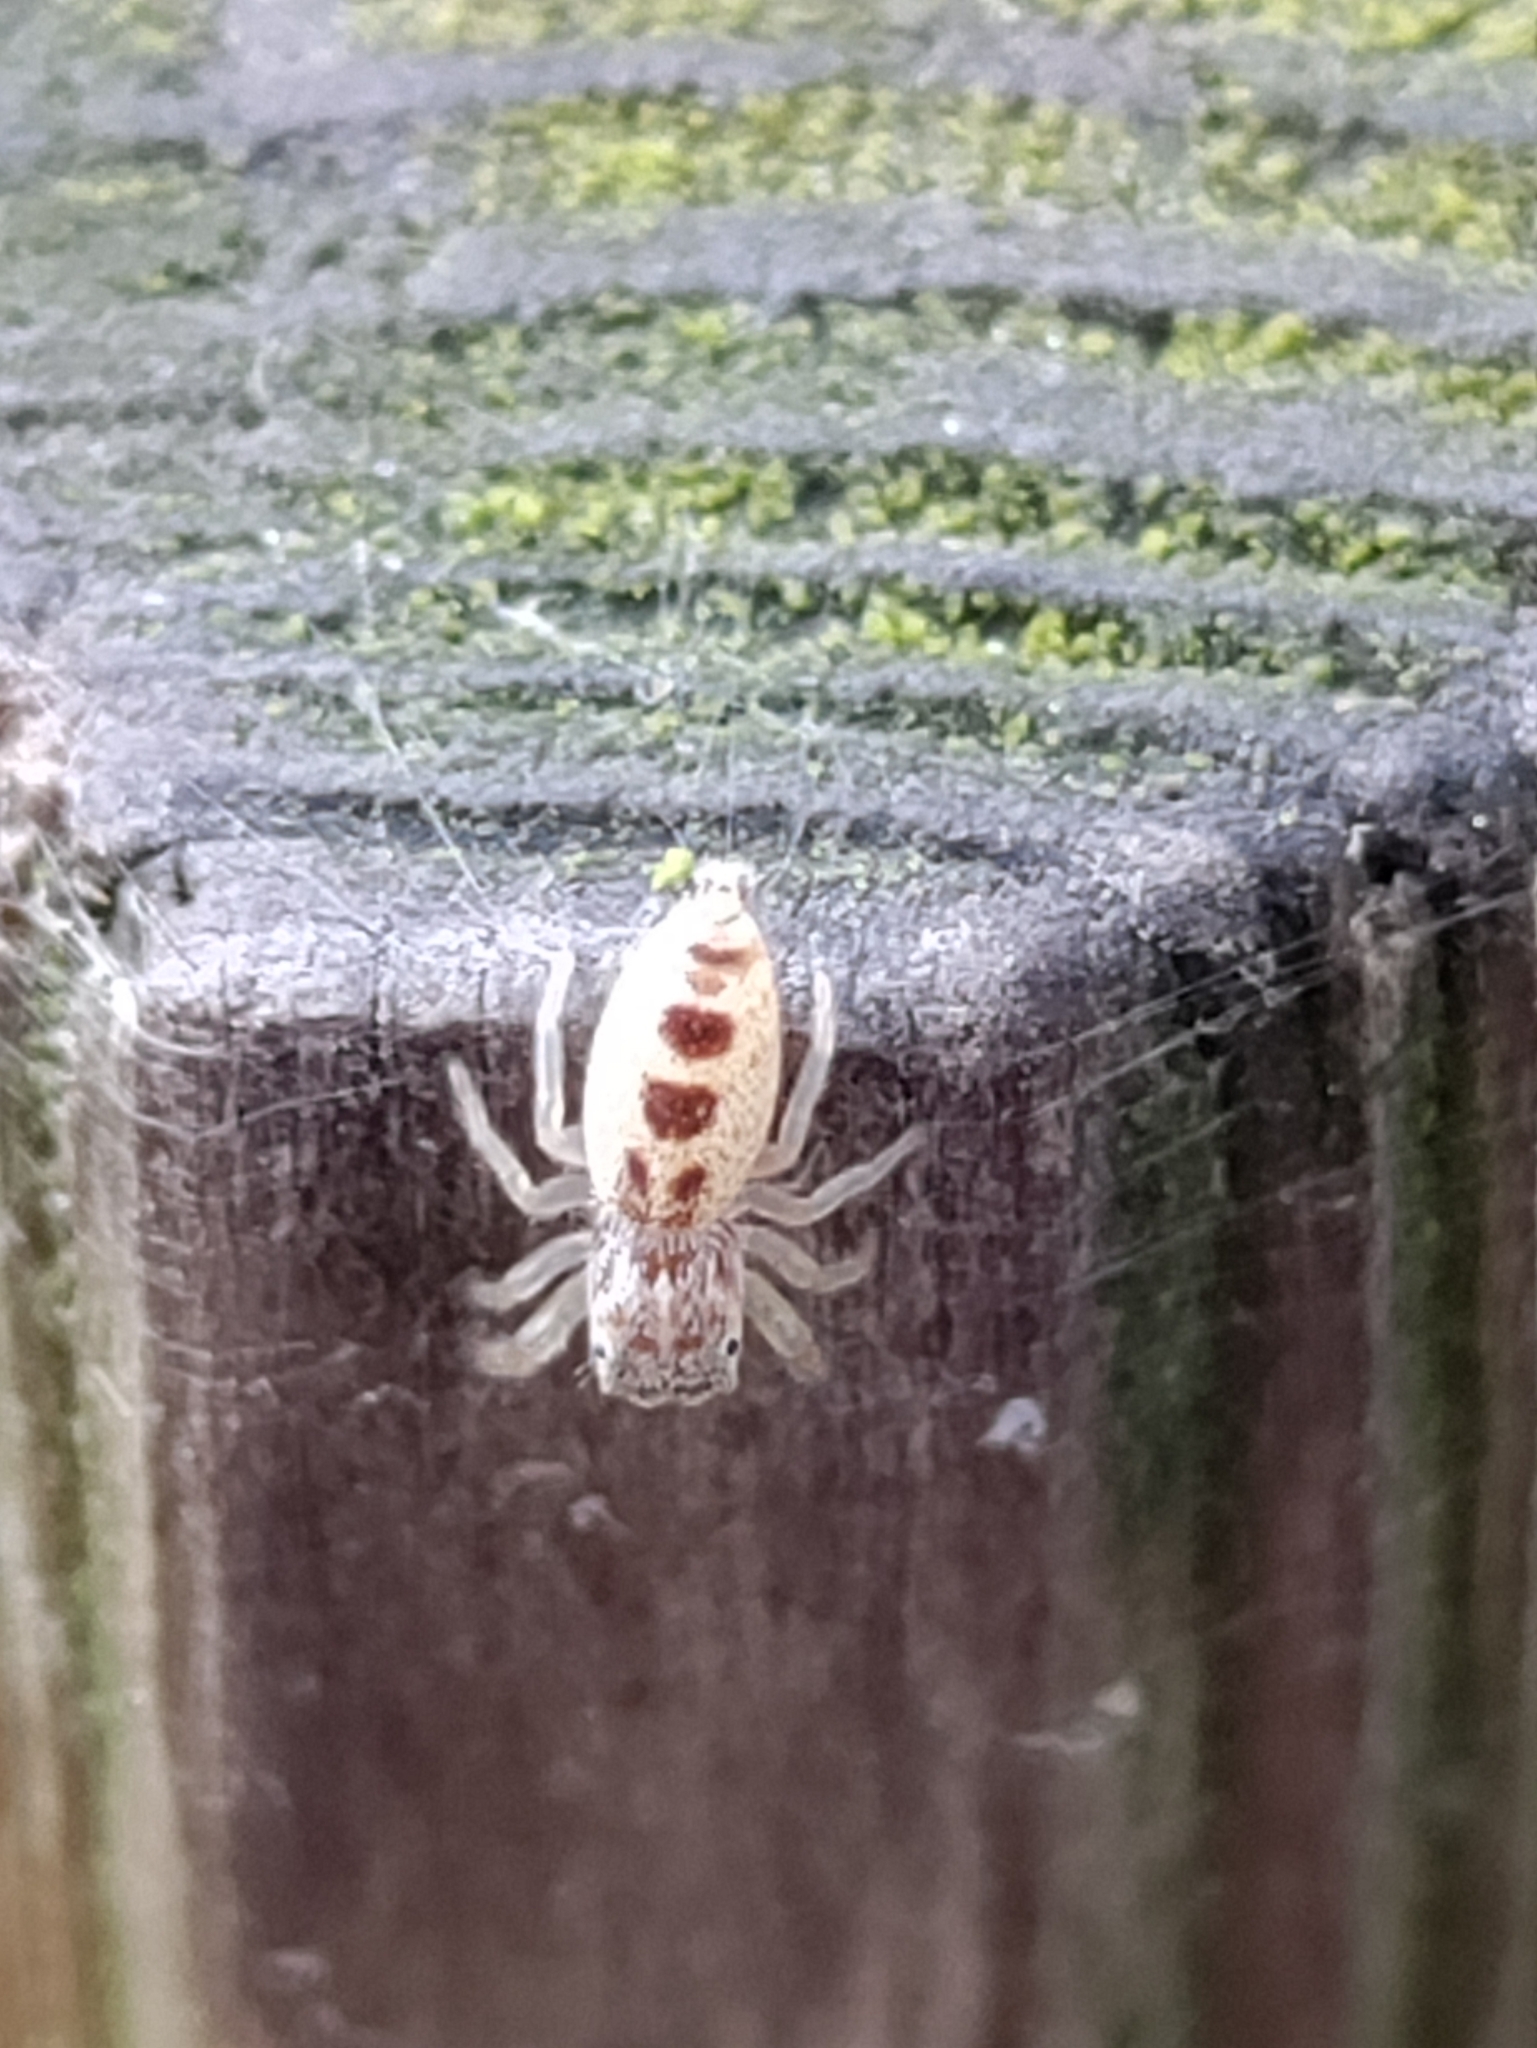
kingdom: Animalia
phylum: Arthropoda
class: Arachnida
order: Araneae
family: Salticidae
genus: Hentzia
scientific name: Hentzia mitrata
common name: White-jawed jumping spider
